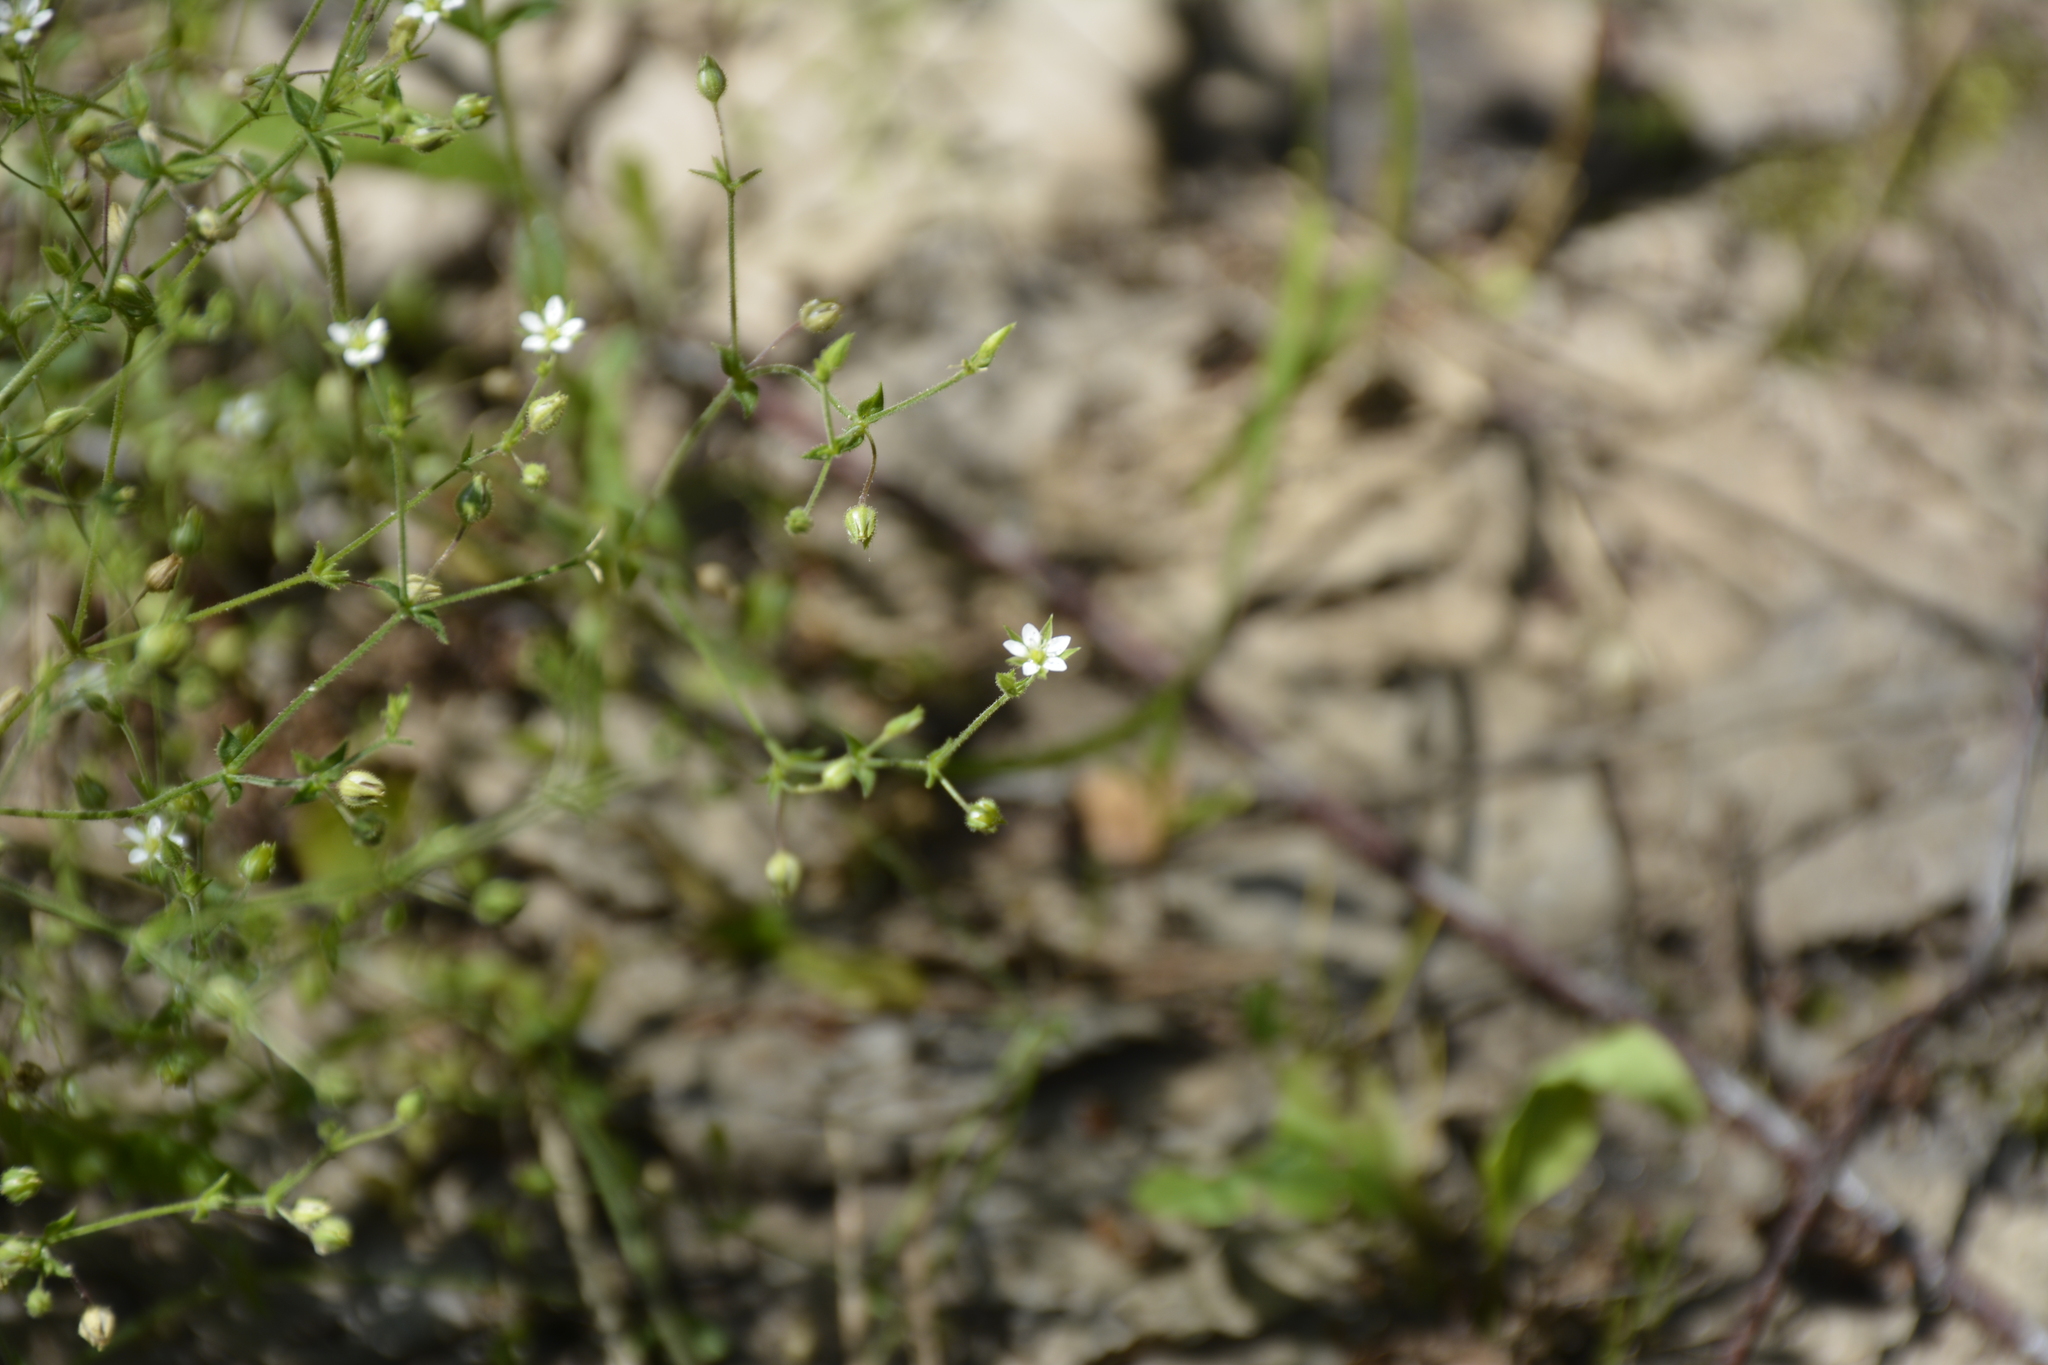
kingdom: Plantae
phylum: Tracheophyta
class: Magnoliopsida
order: Caryophyllales
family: Caryophyllaceae
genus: Arenaria
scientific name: Arenaria serpyllifolia
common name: Thyme-leaved sandwort
